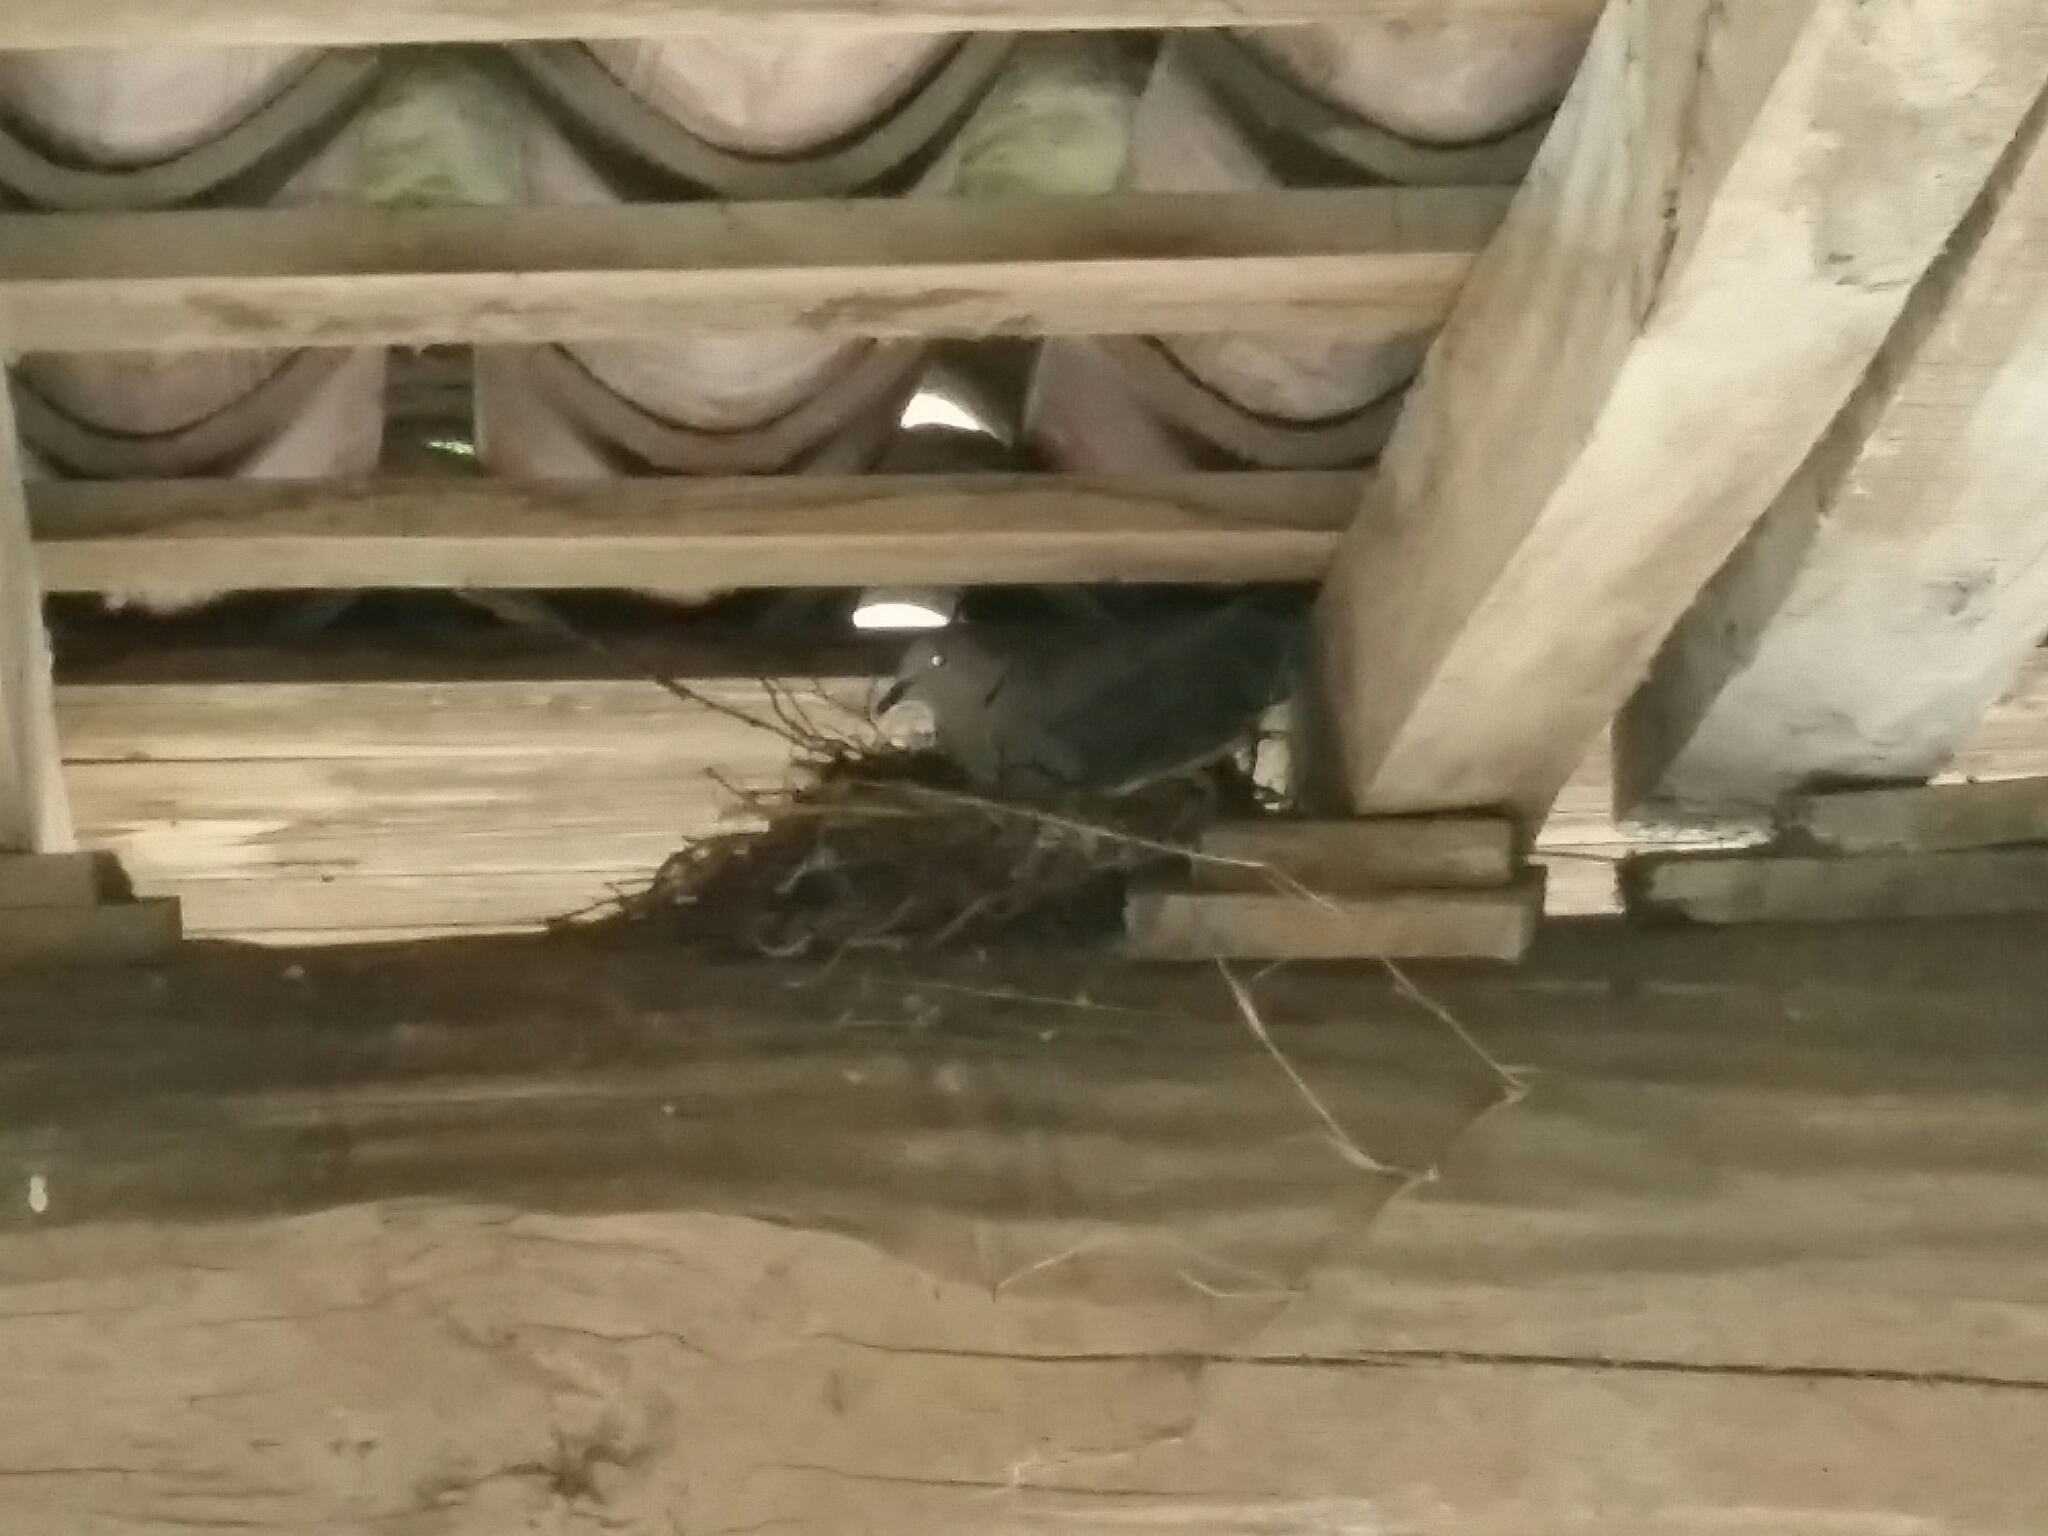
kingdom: Animalia
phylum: Chordata
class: Aves
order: Columbiformes
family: Columbidae
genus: Streptopelia
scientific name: Streptopelia decaocto
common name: Eurasian collared dove
